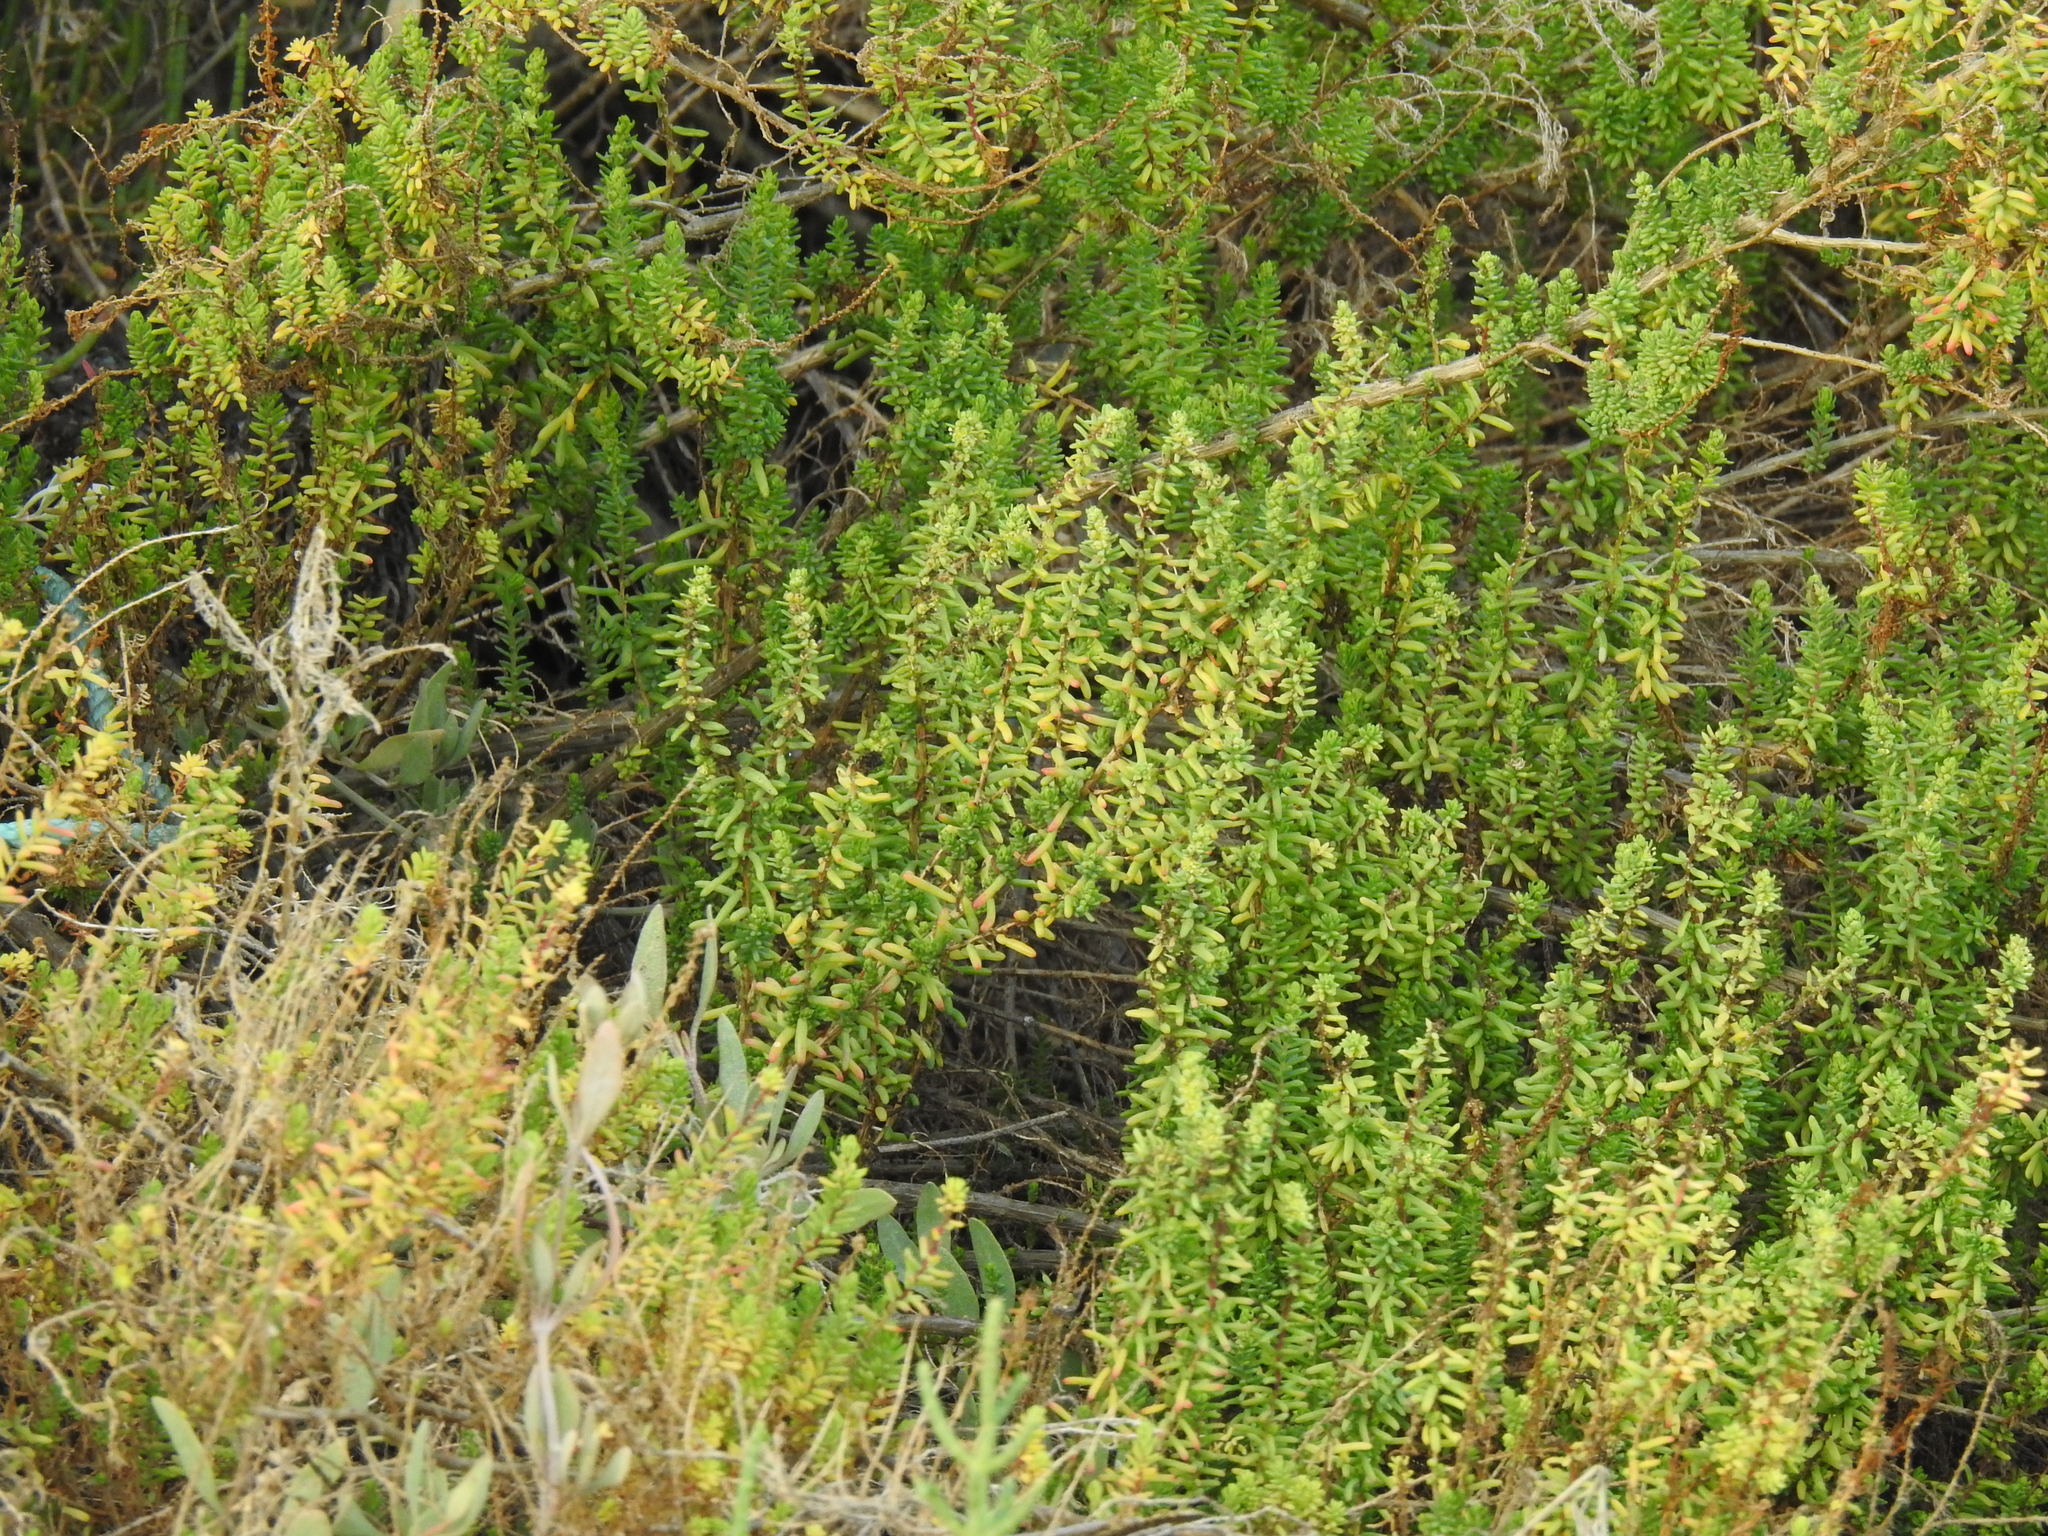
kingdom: Plantae
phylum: Tracheophyta
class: Magnoliopsida
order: Caryophyllales
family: Amaranthaceae
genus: Suaeda
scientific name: Suaeda vera
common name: Shrubby sea-blite
